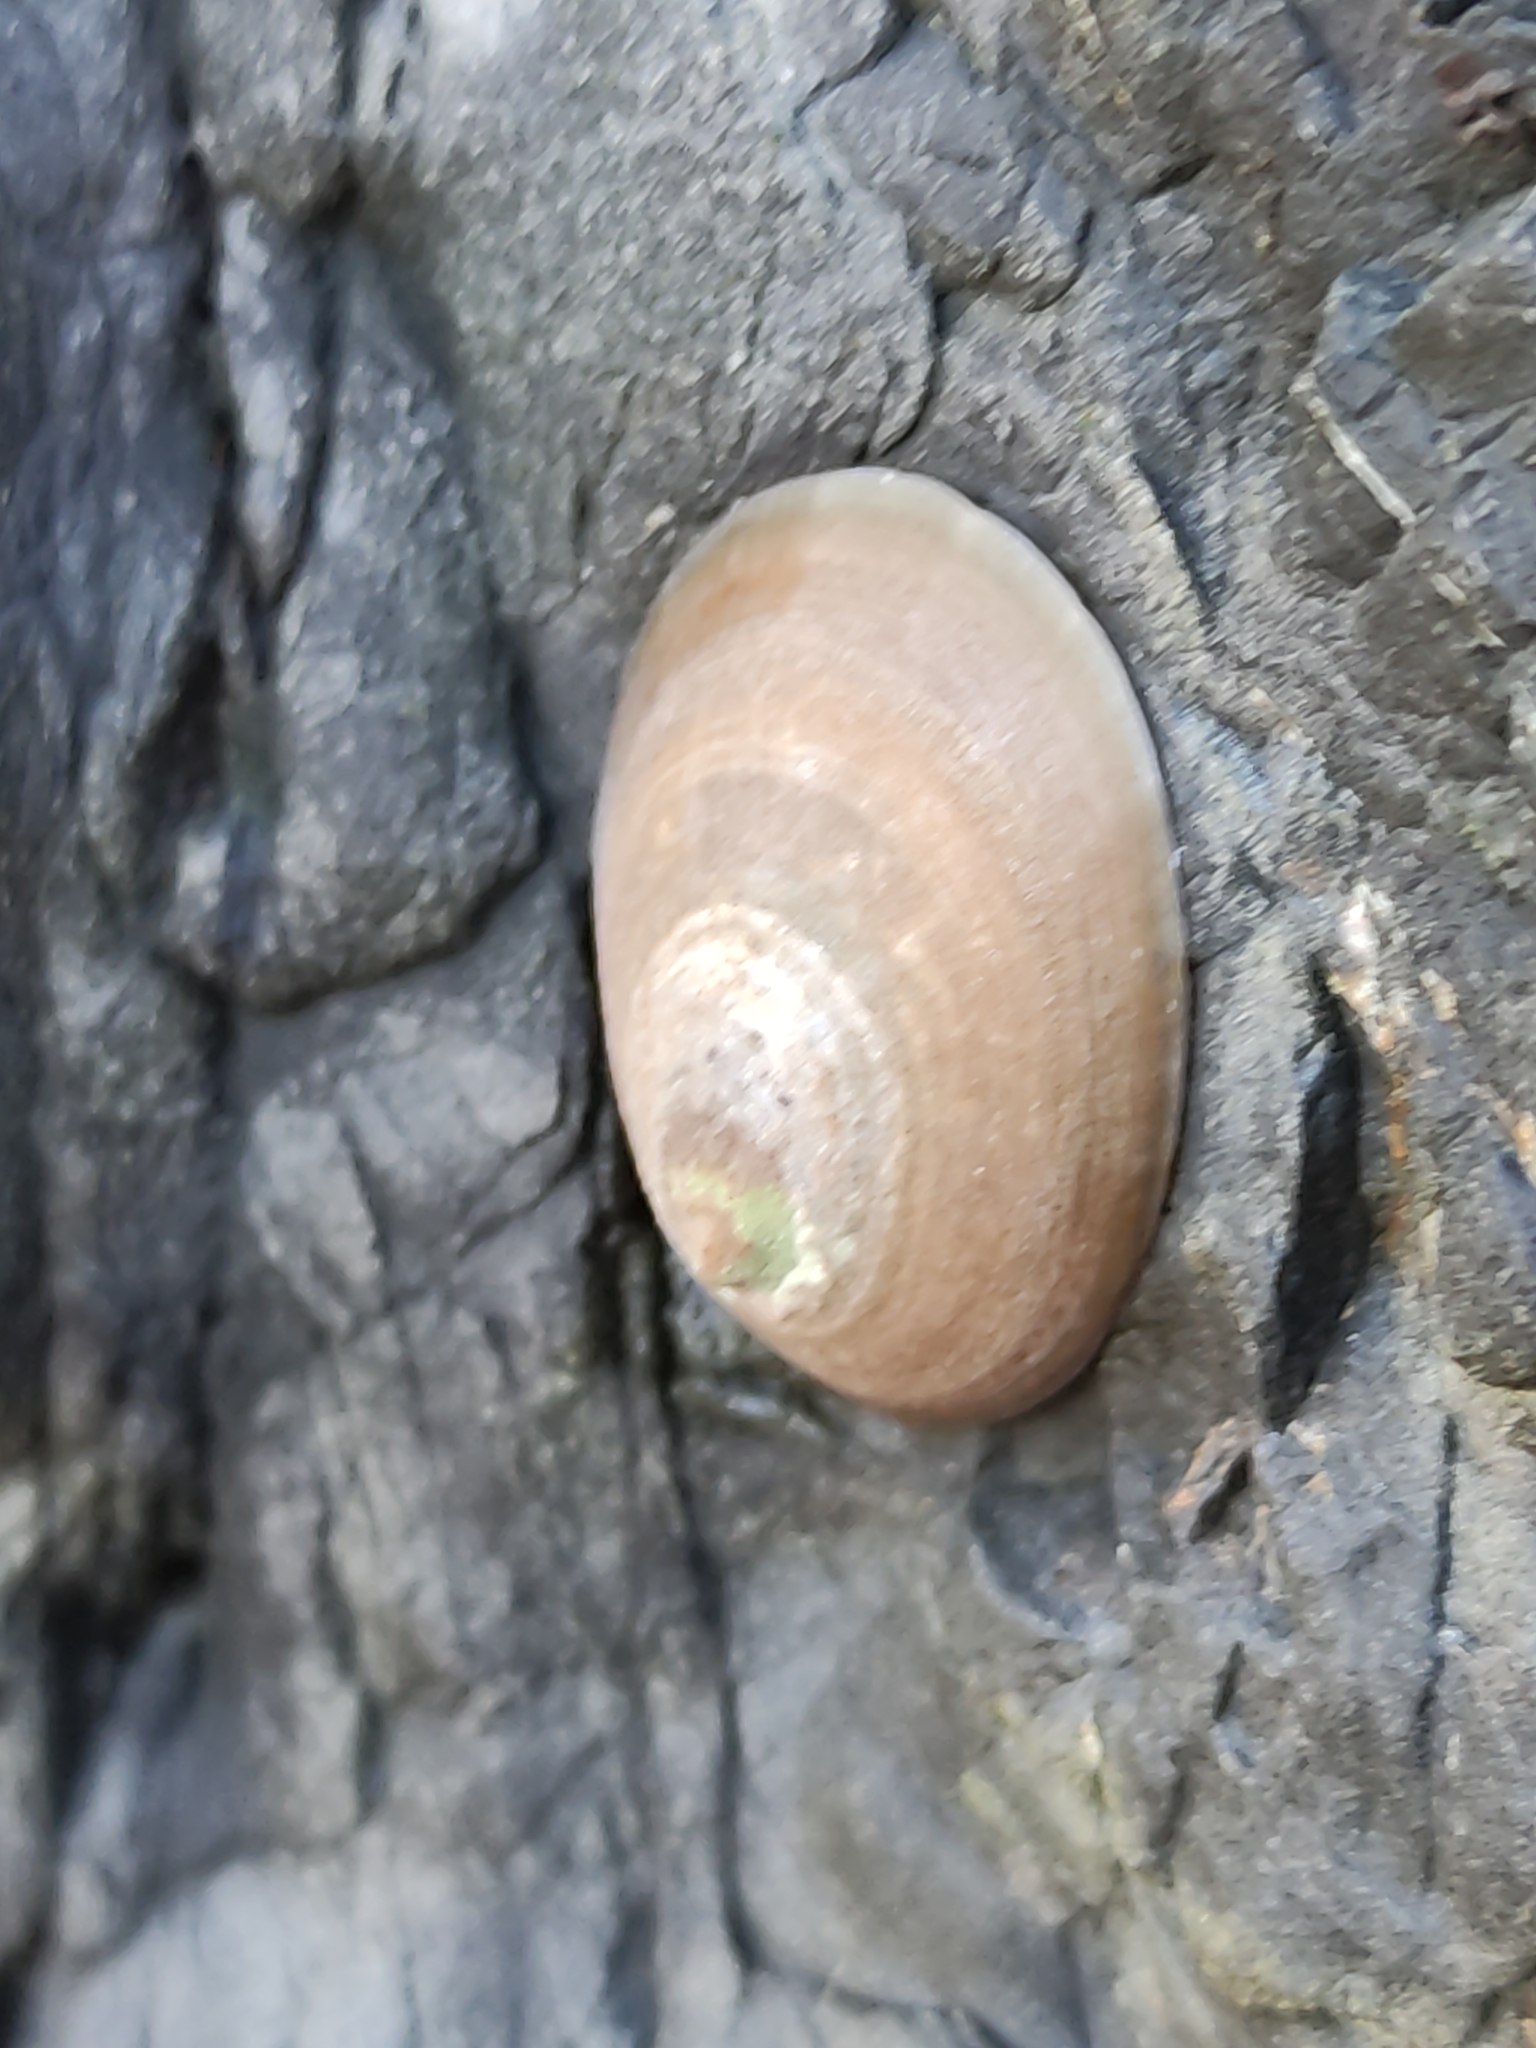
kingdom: Animalia
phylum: Mollusca
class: Gastropoda
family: Nacellidae
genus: Cellana
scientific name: Cellana flava
